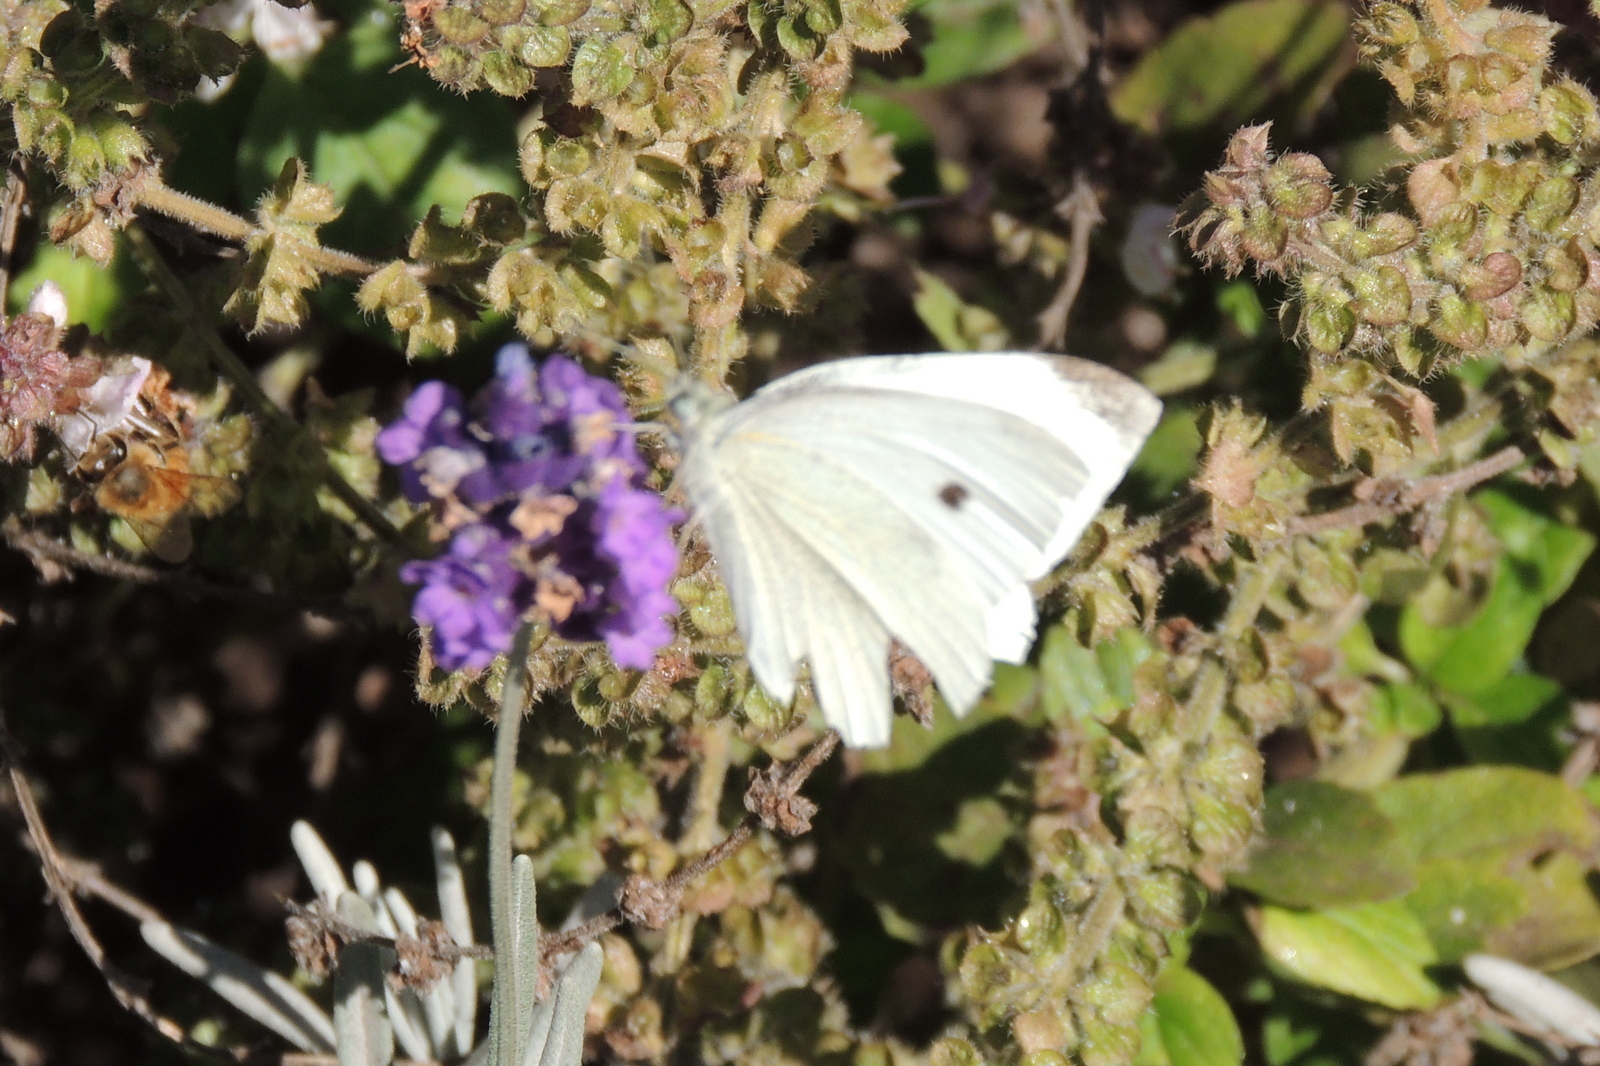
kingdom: Animalia
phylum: Arthropoda
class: Insecta
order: Lepidoptera
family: Pieridae
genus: Pieris
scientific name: Pieris rapae
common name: Small white
